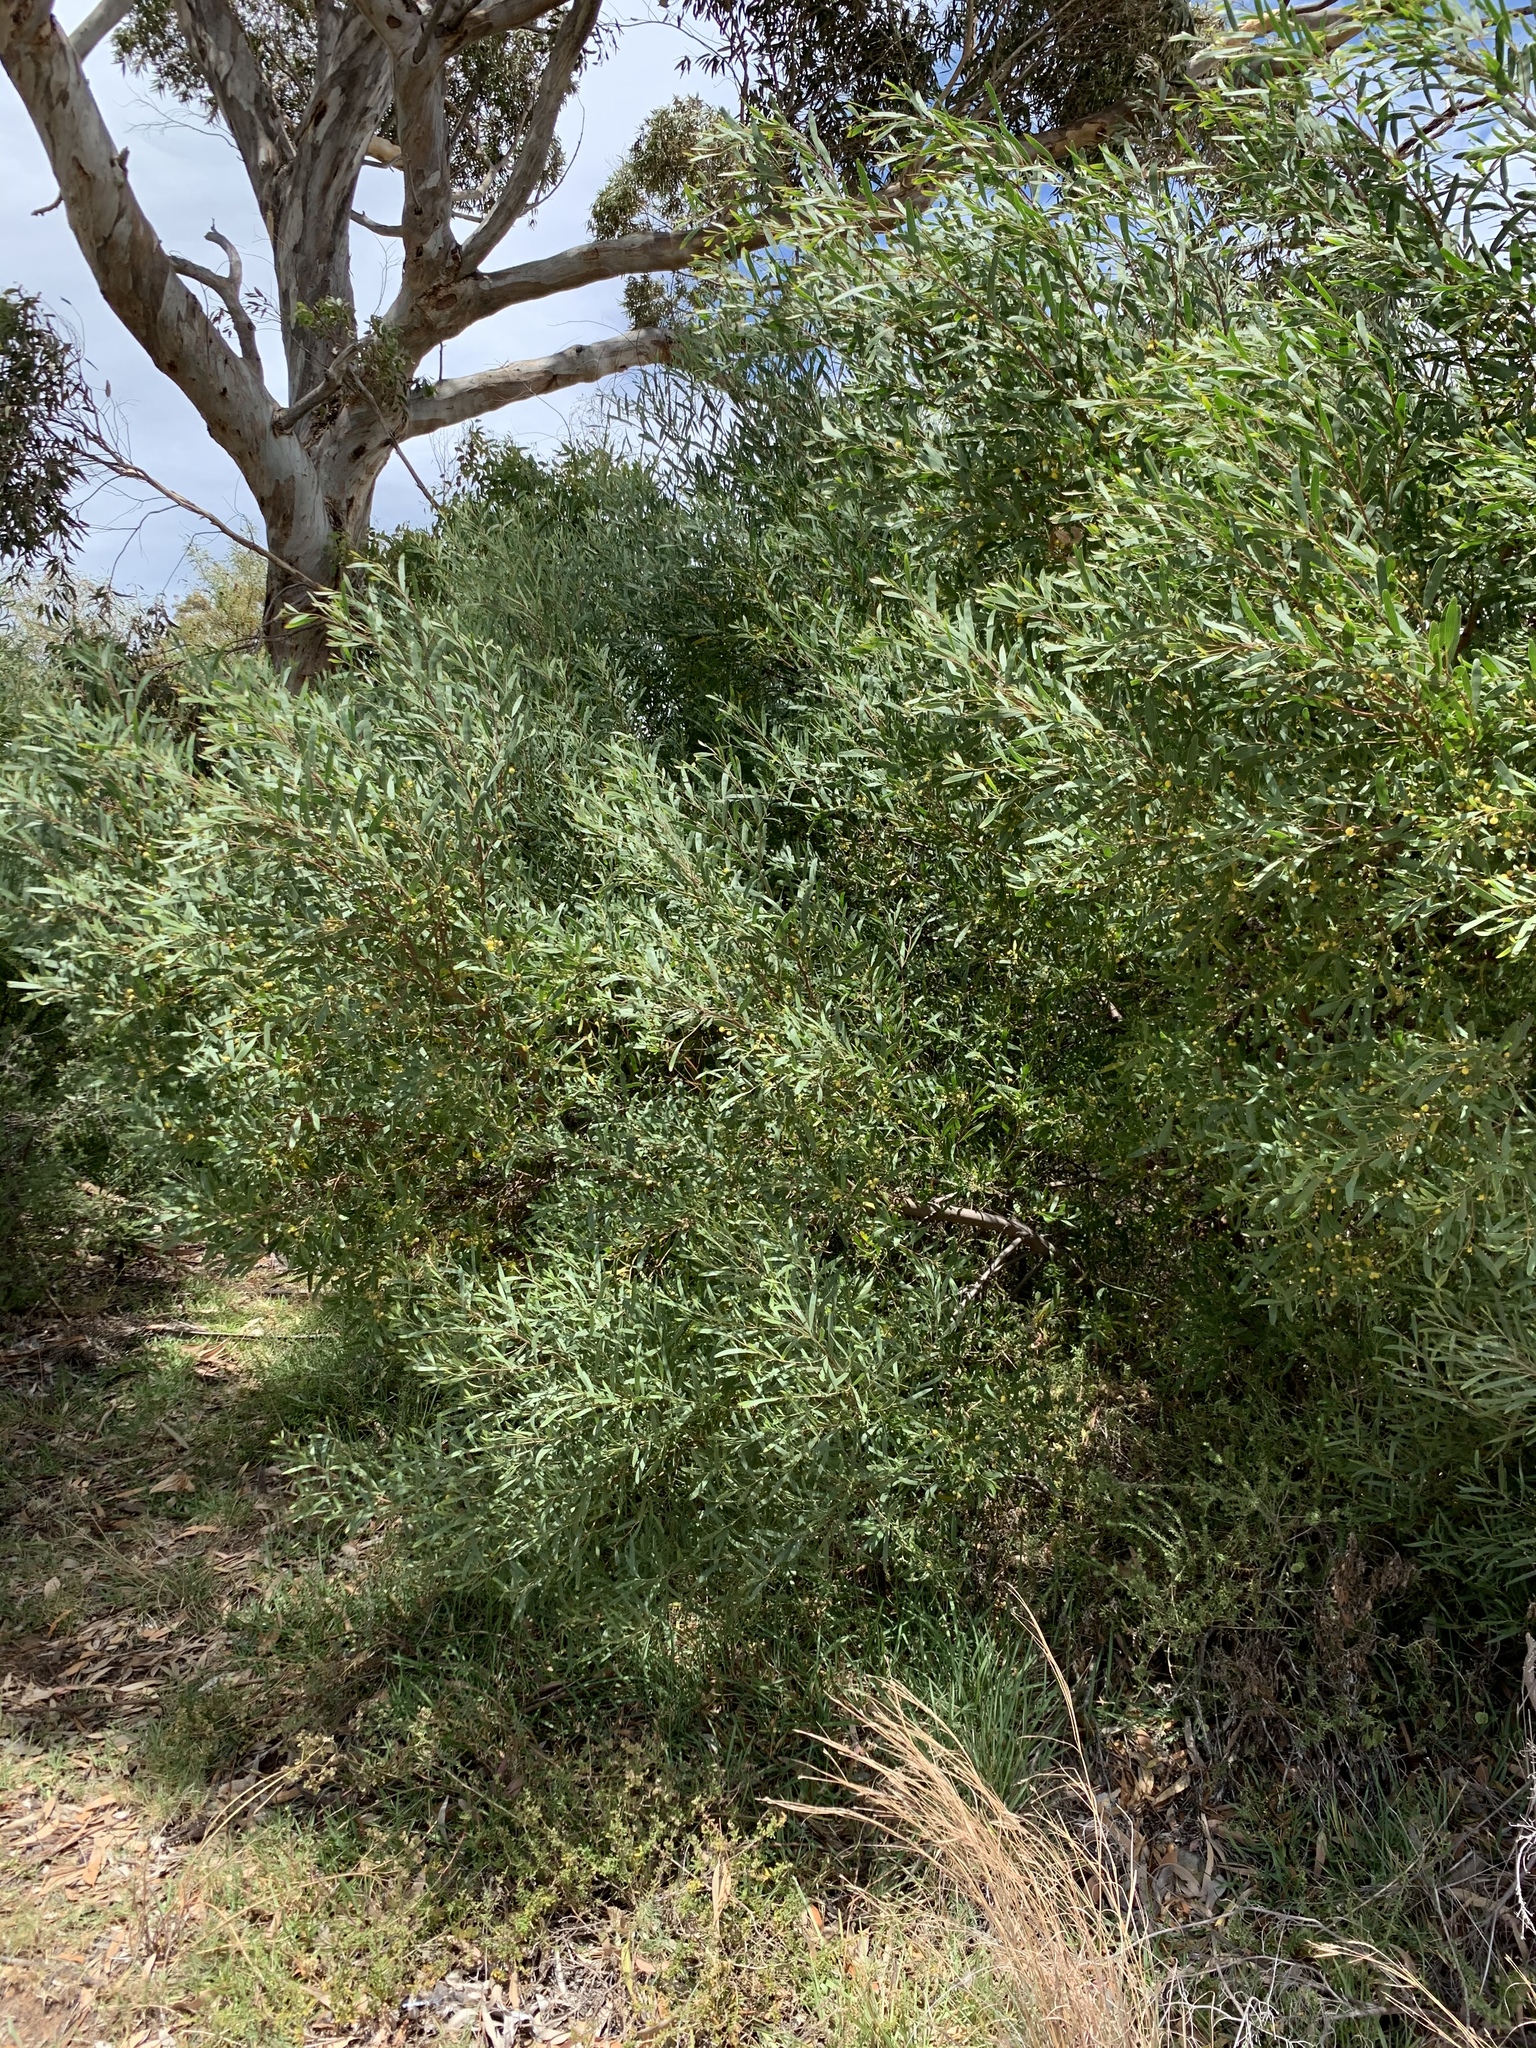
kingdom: Plantae
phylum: Tracheophyta
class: Magnoliopsida
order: Fabales
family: Fabaceae
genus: Acacia
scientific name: Acacia cyclops
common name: Coastal wattle
